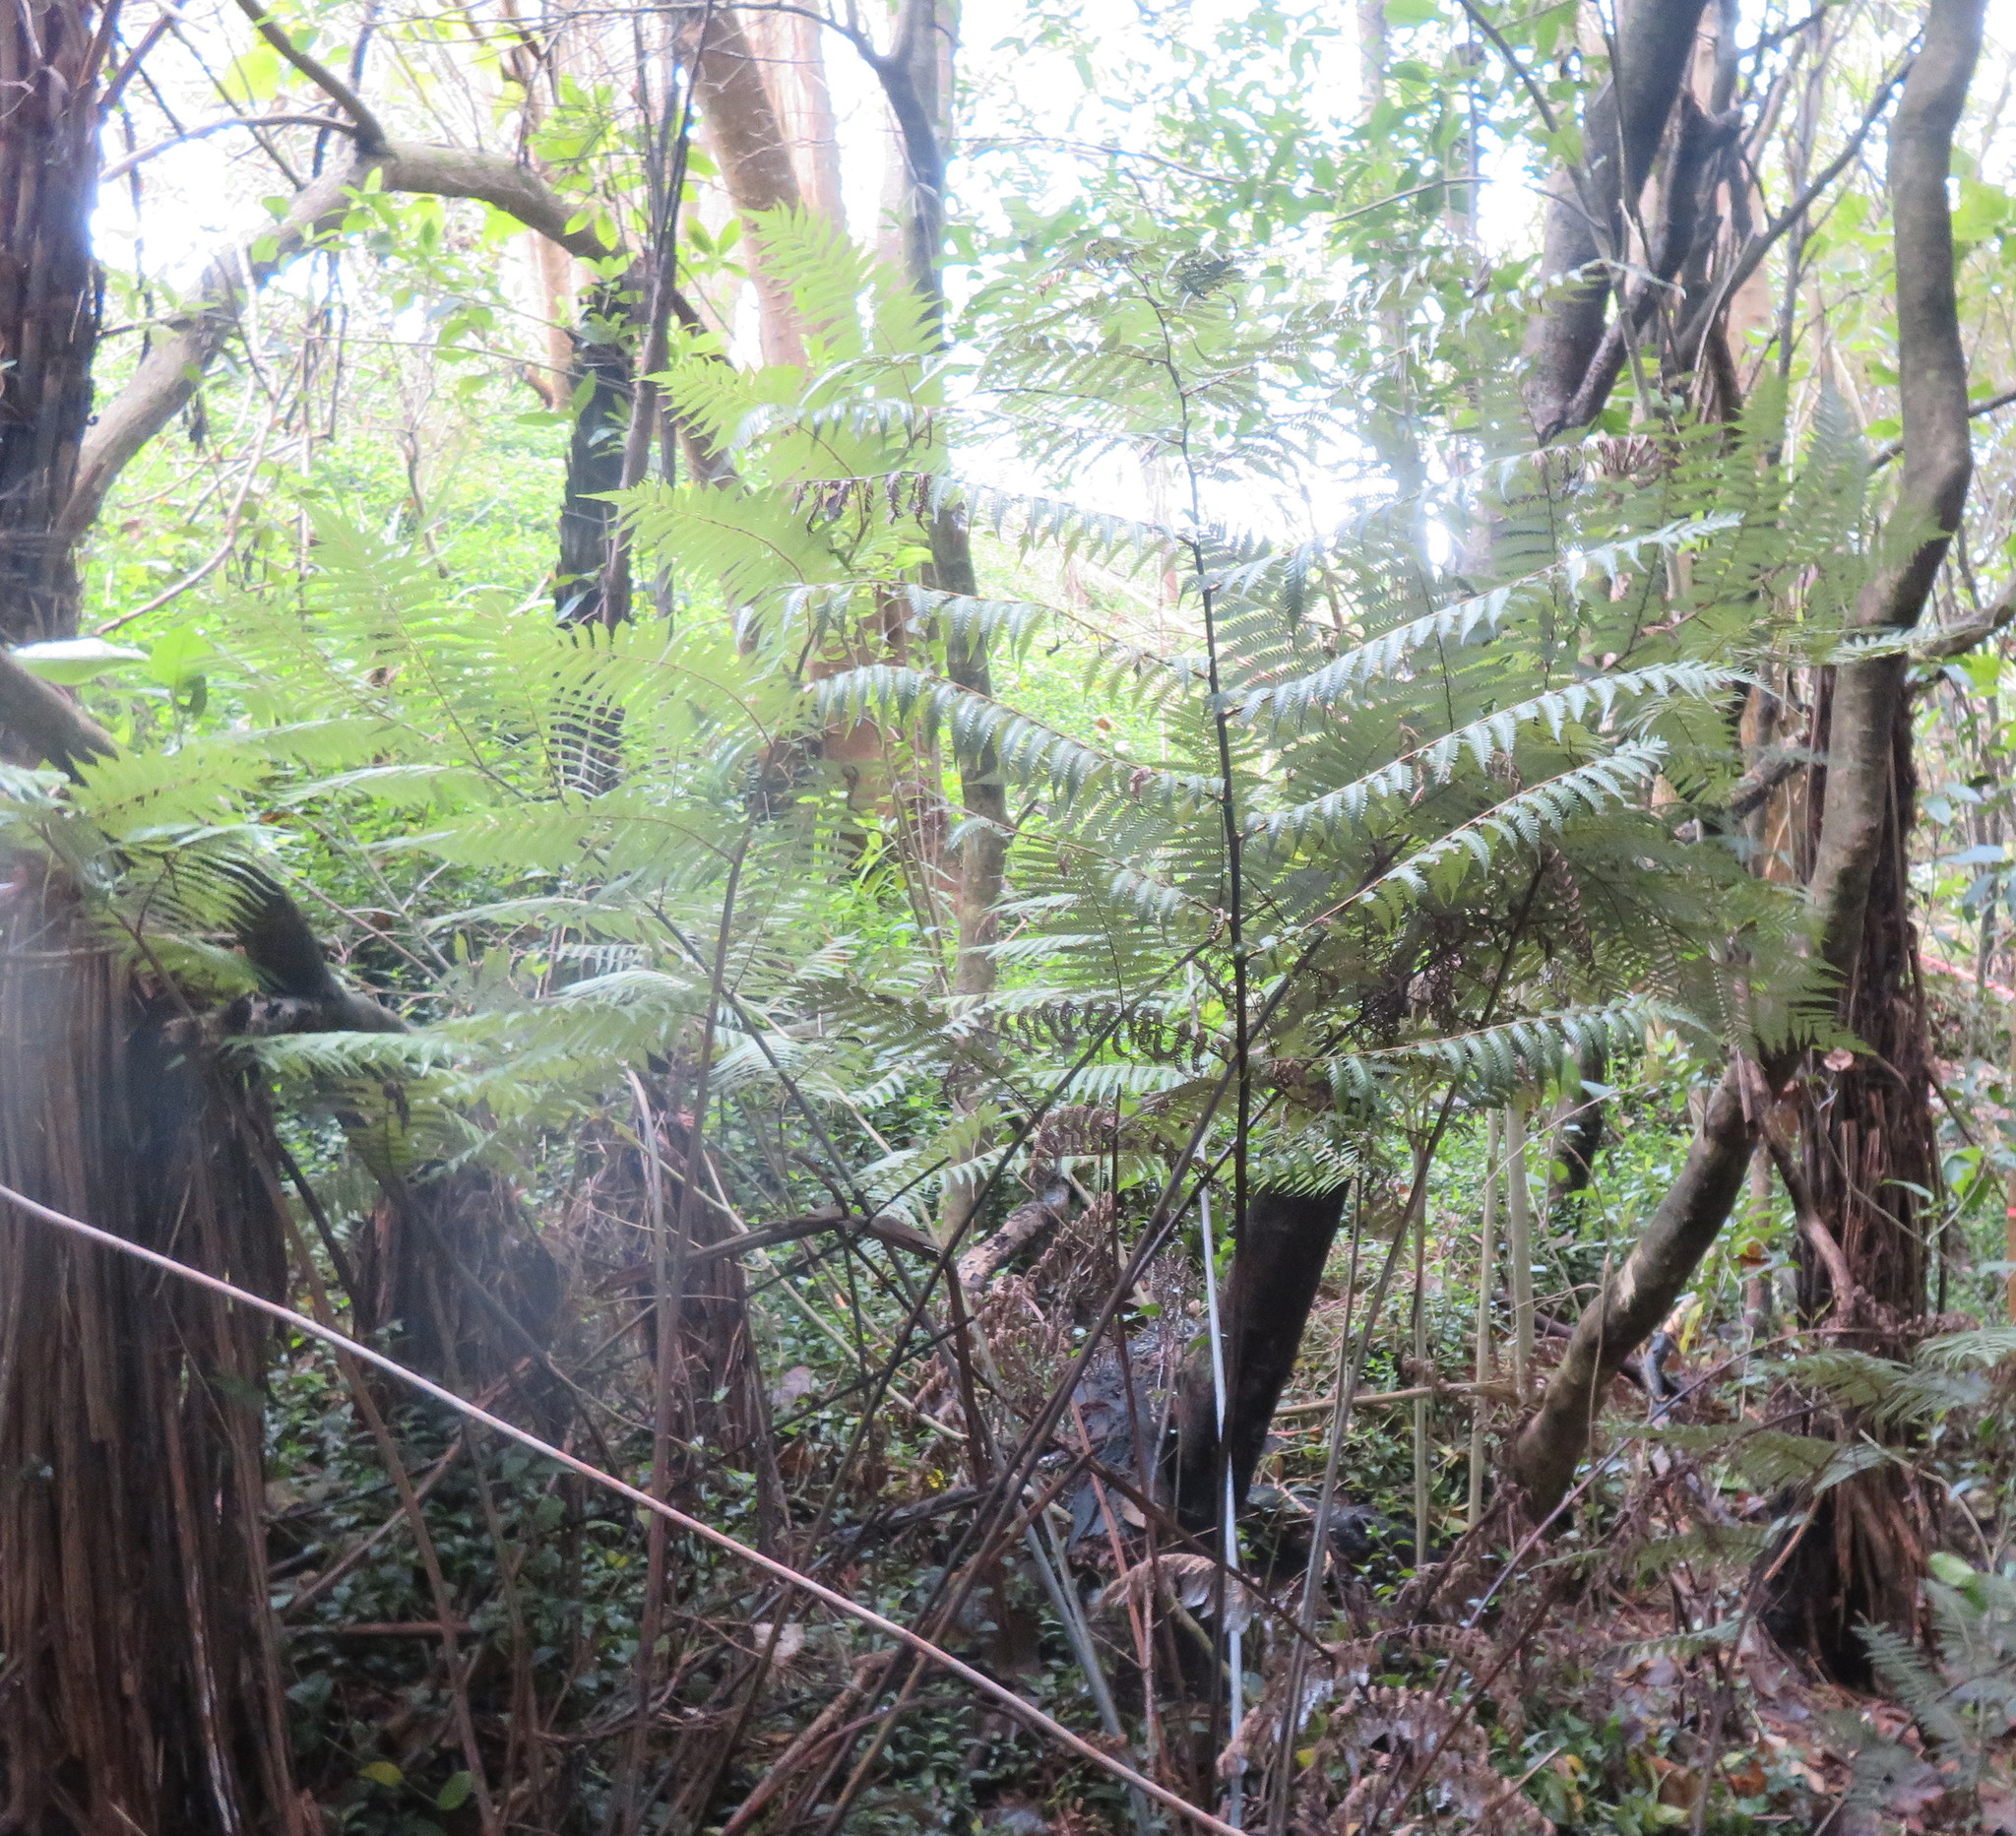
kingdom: Plantae
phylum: Tracheophyta
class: Polypodiopsida
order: Cyatheales
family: Cyatheaceae
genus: Alsophila
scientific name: Alsophila dealbata
